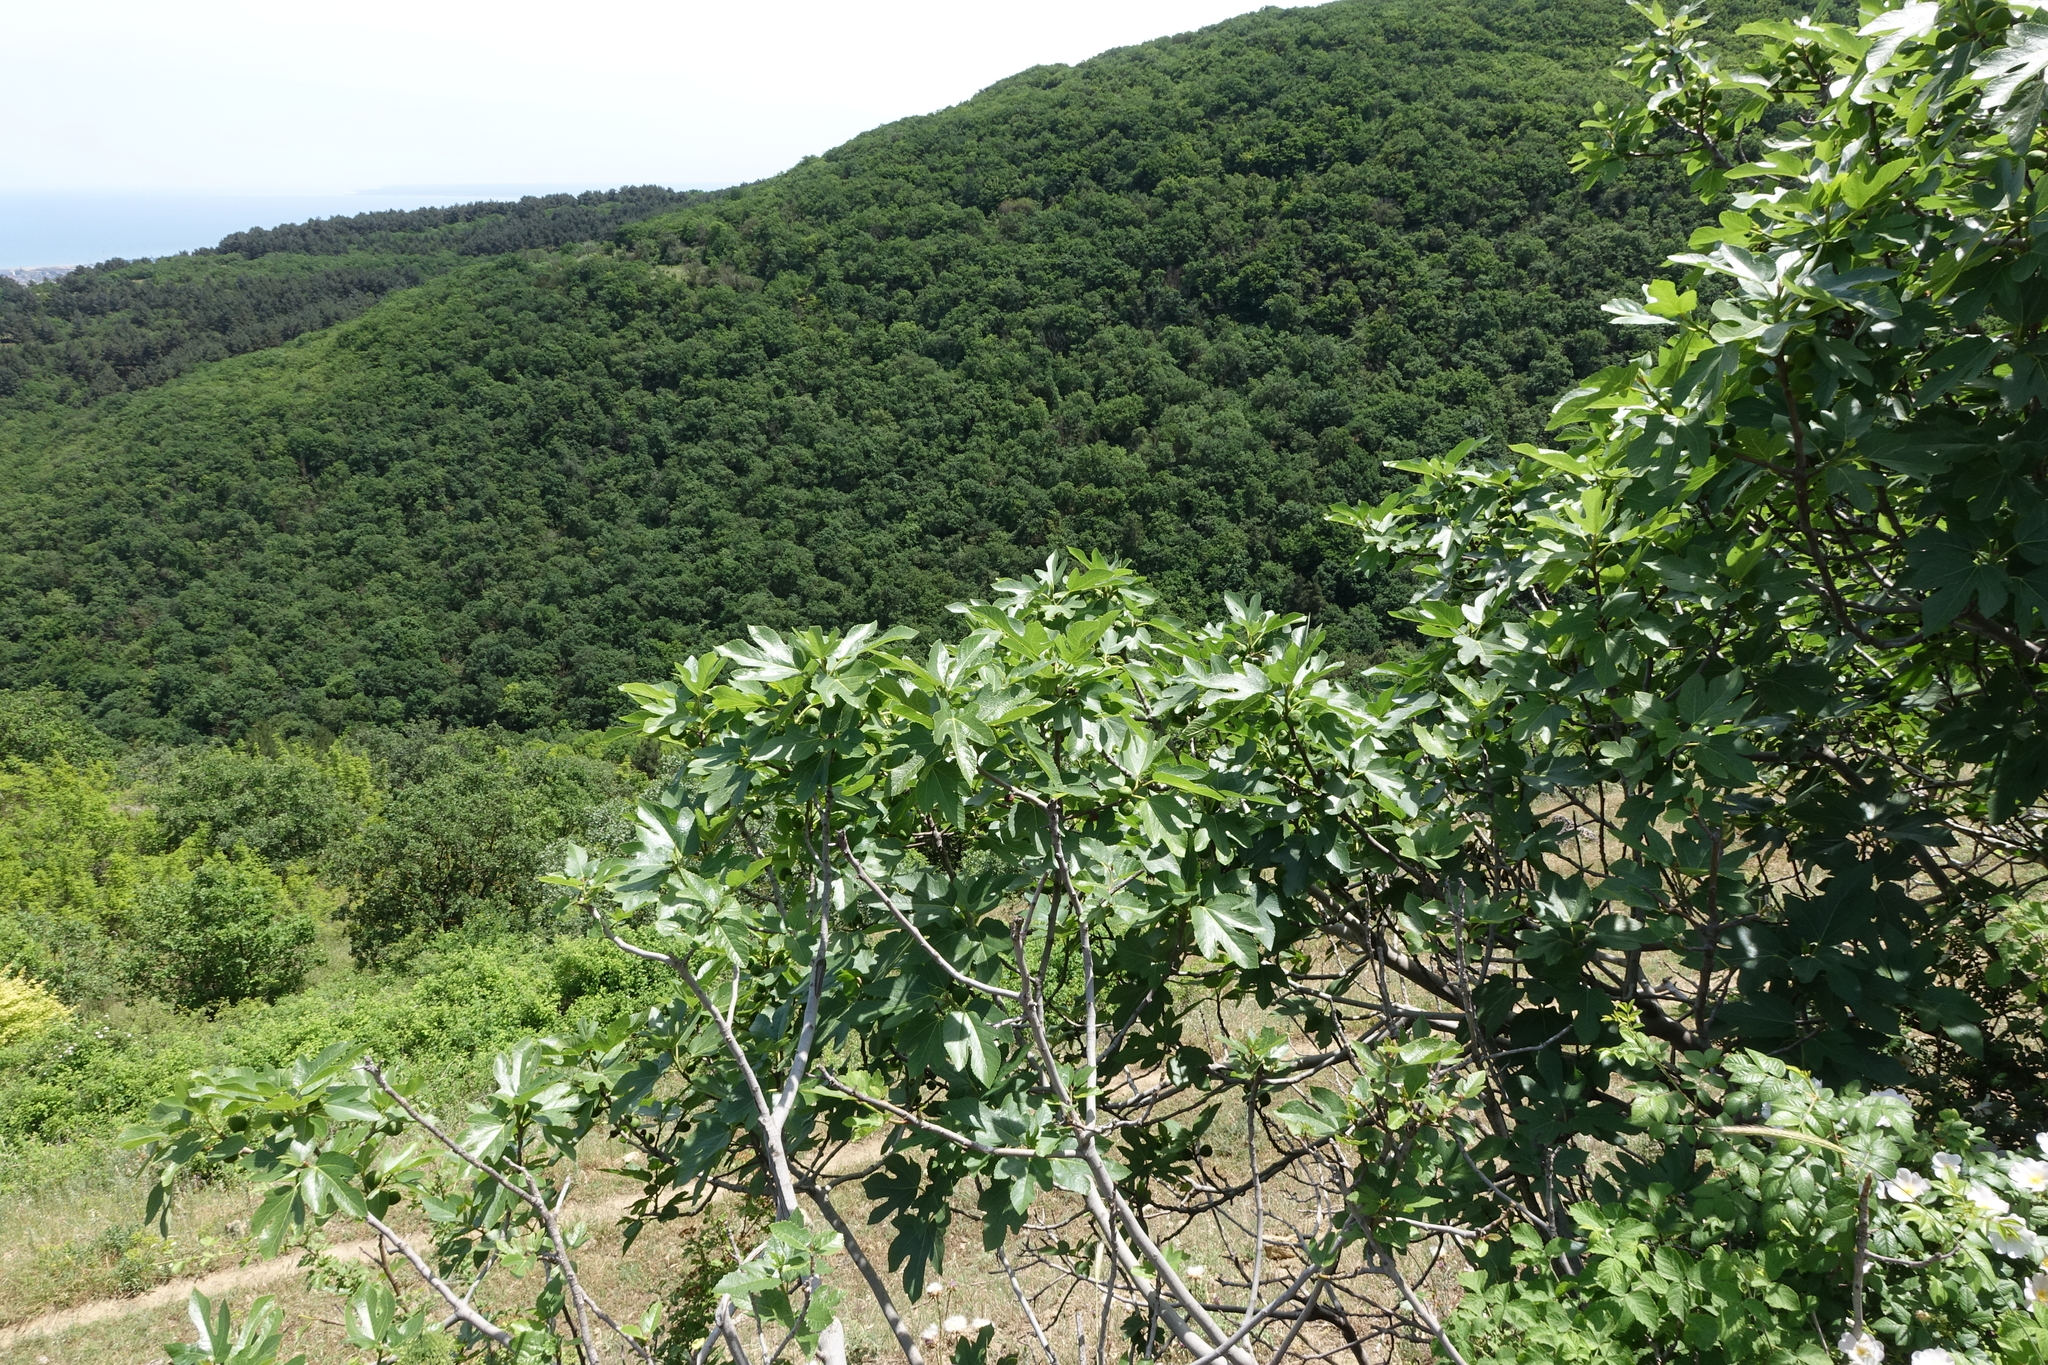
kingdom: Plantae
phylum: Tracheophyta
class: Magnoliopsida
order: Rosales
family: Moraceae
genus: Ficus
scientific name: Ficus carica
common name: Fig
